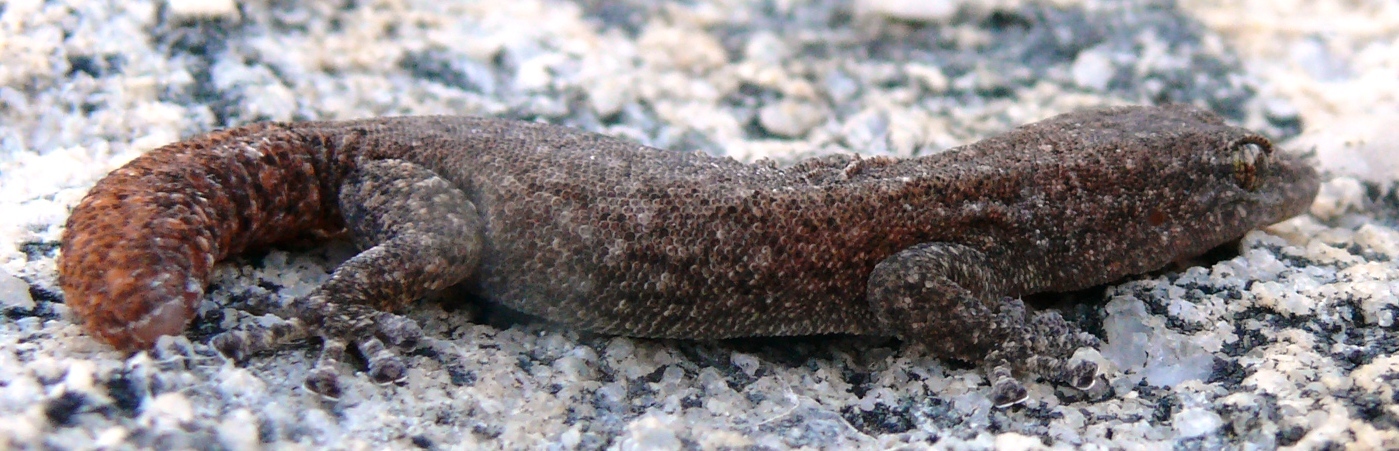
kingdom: Animalia
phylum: Chordata
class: Squamata
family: Gekkonidae
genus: Goggia
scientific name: Goggia hexapora
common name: Cedarberg dwarf leaf-toed gecko
